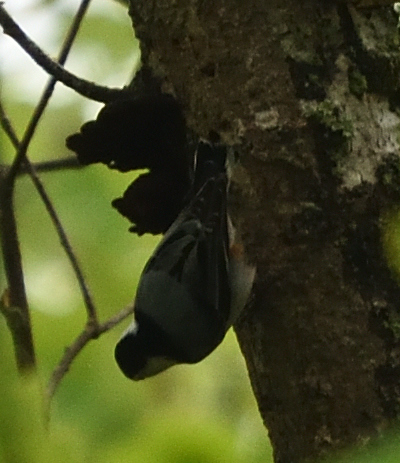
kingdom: Animalia
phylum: Chordata
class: Aves
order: Passeriformes
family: Sittidae
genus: Sitta
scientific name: Sitta carolinensis
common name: White-breasted nuthatch
